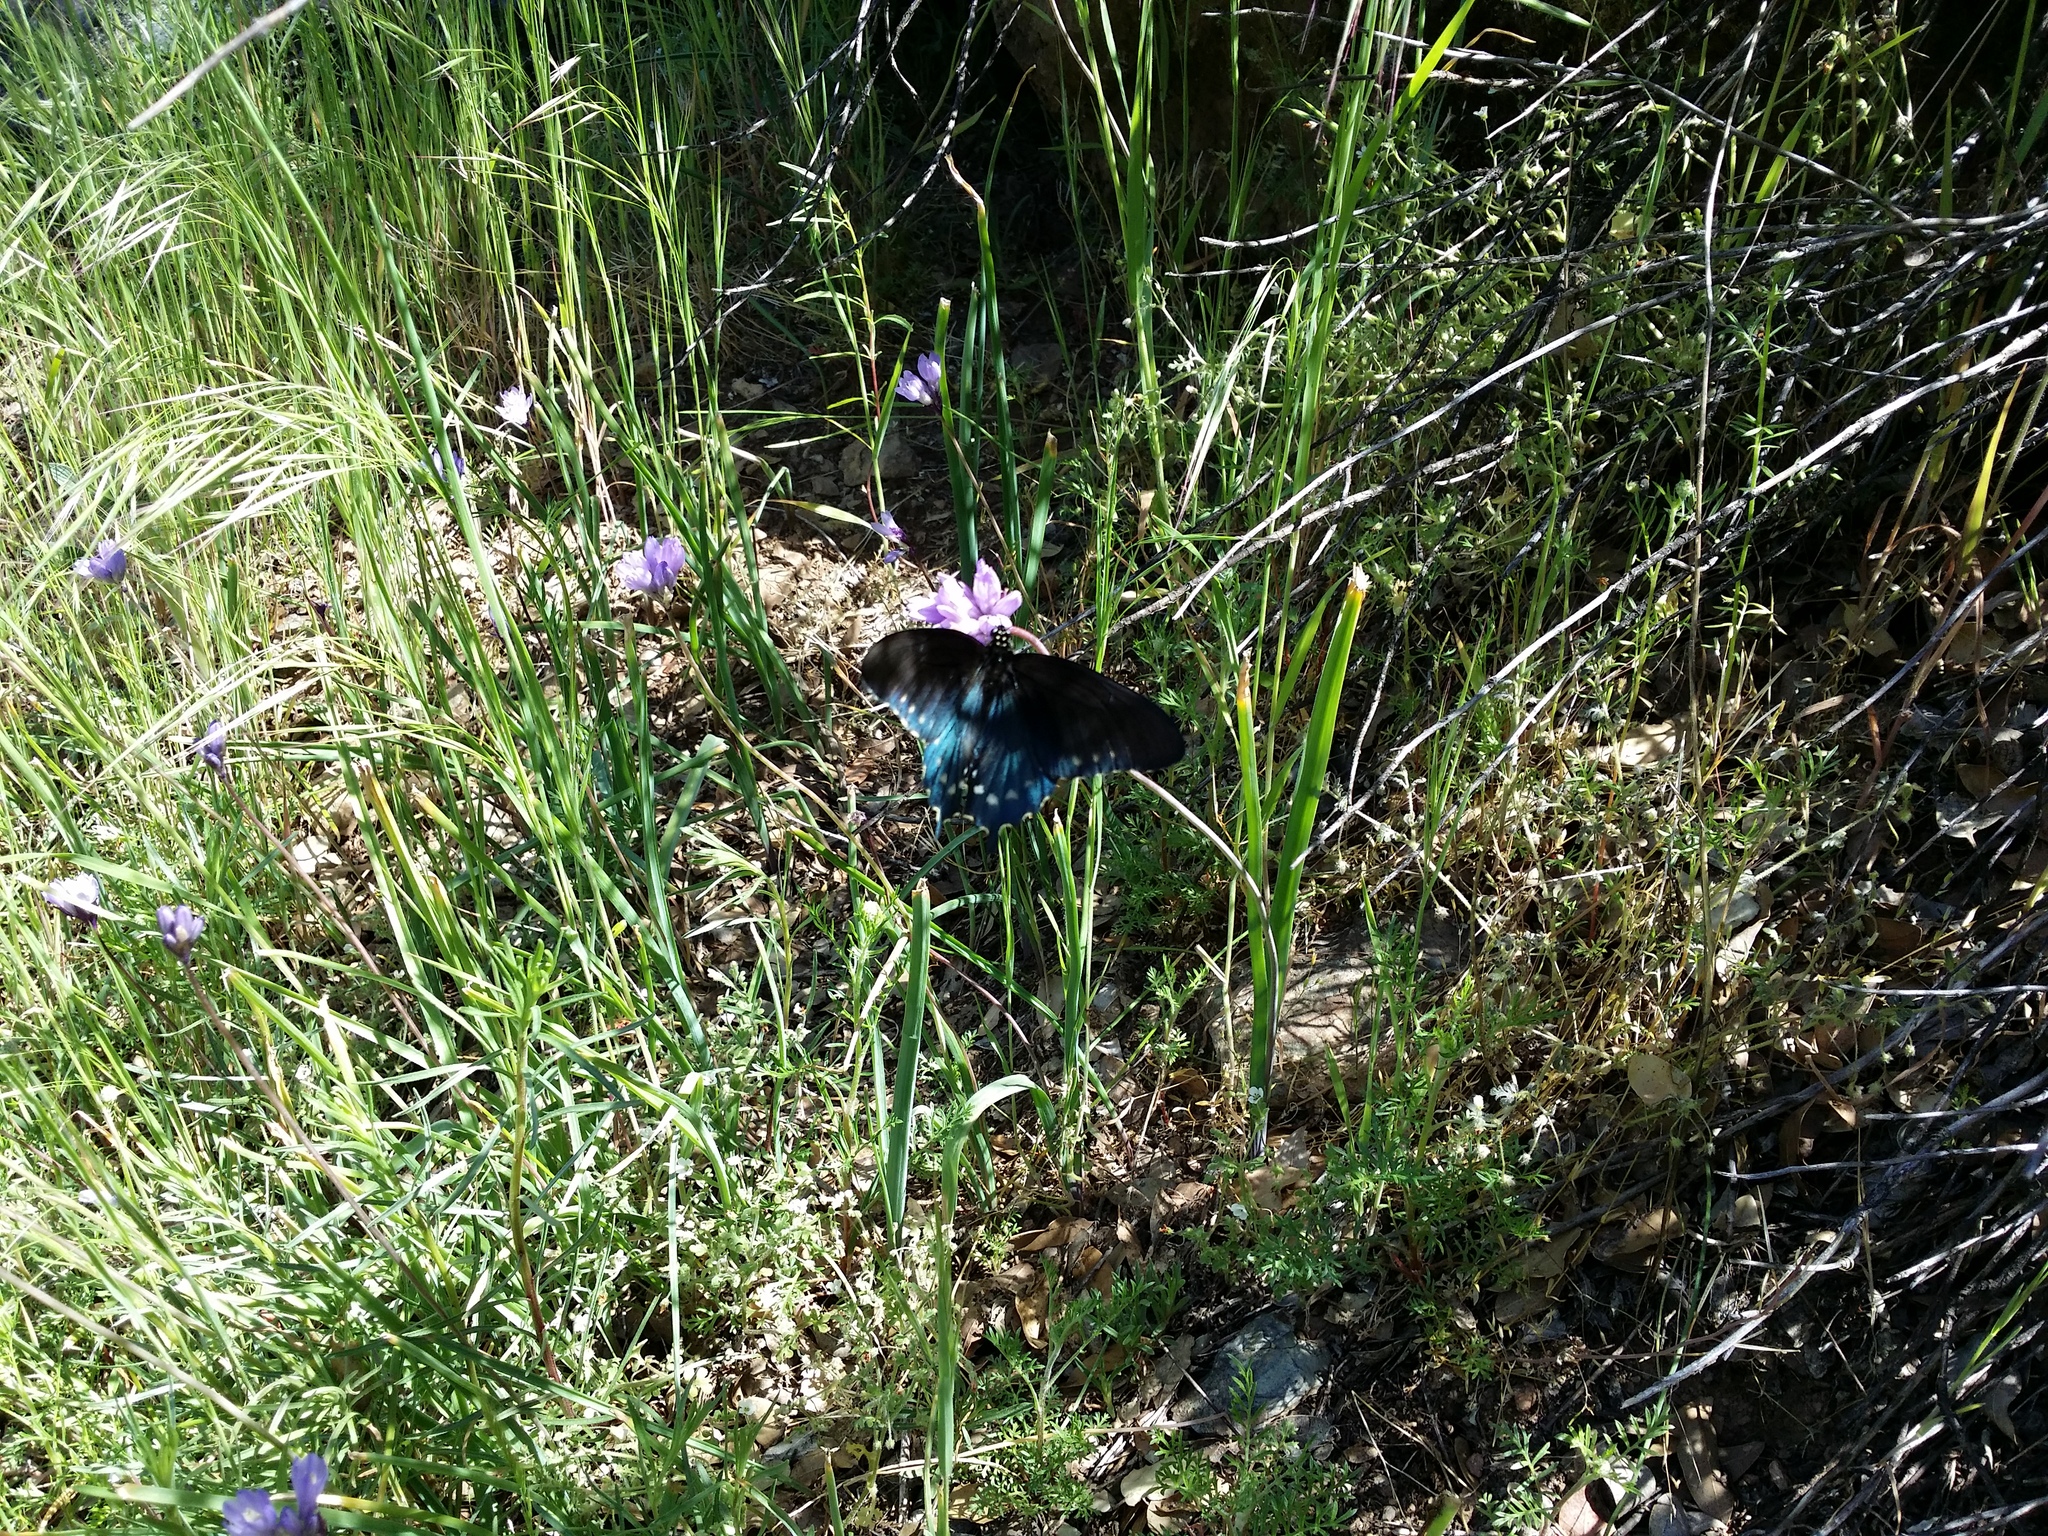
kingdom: Animalia
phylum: Arthropoda
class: Insecta
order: Lepidoptera
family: Papilionidae
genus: Battus
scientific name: Battus philenor
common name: Pipevine swallowtail
